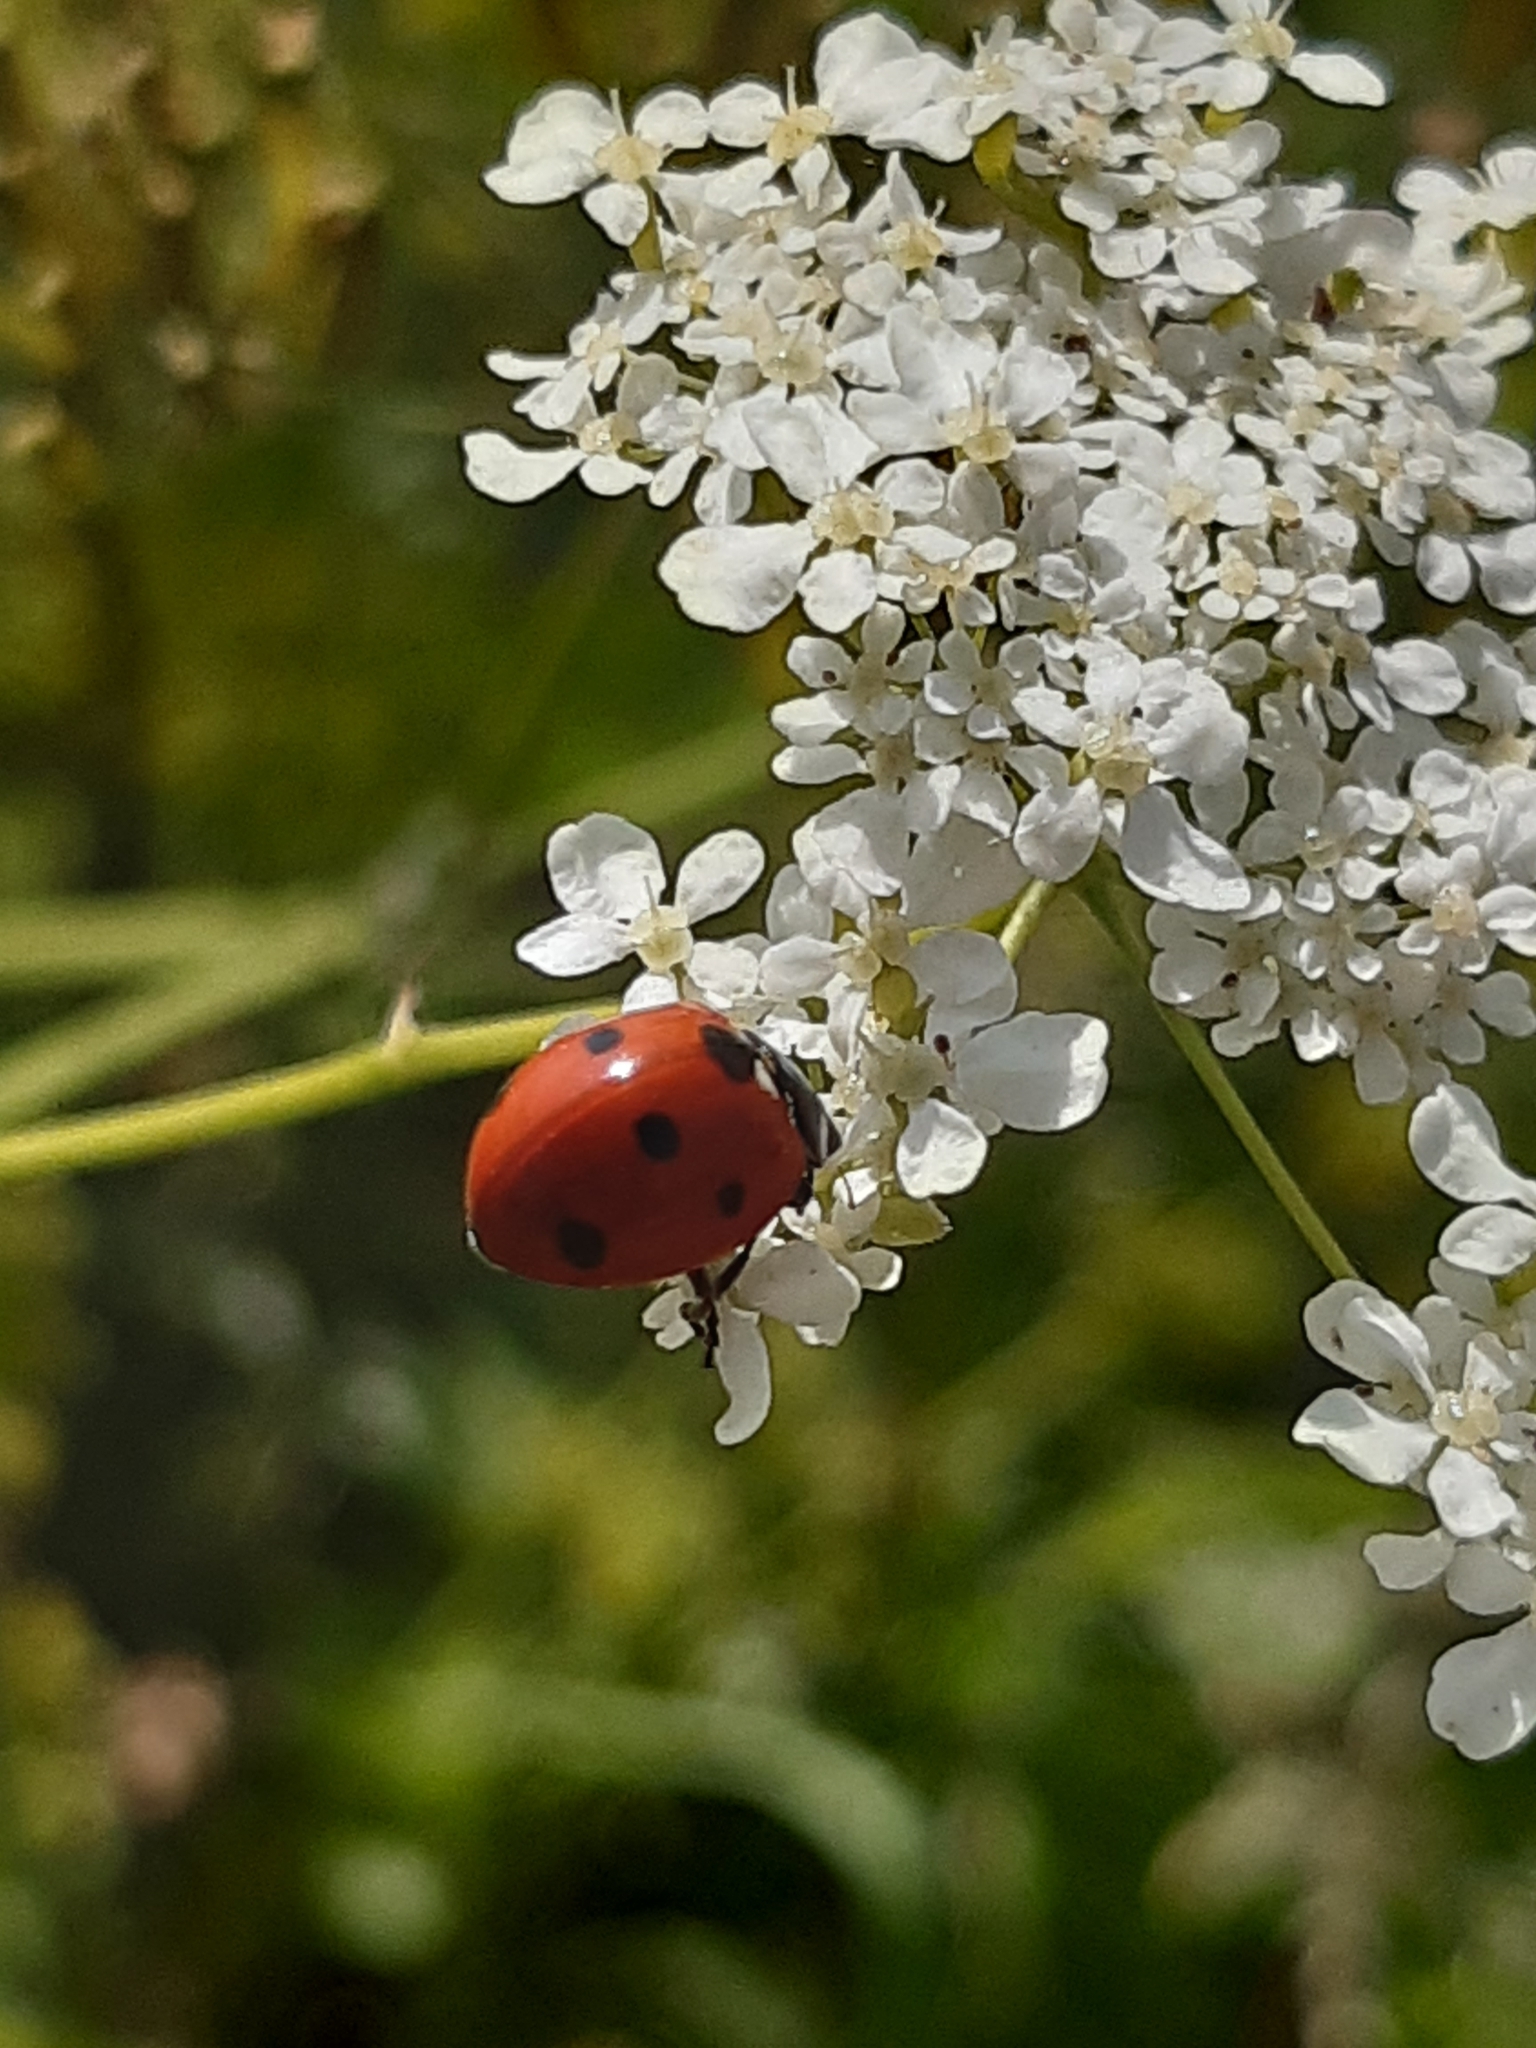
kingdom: Animalia
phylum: Arthropoda
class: Insecta
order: Coleoptera
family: Coccinellidae
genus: Coccinella
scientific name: Coccinella septempunctata
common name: Sevenspotted lady beetle
